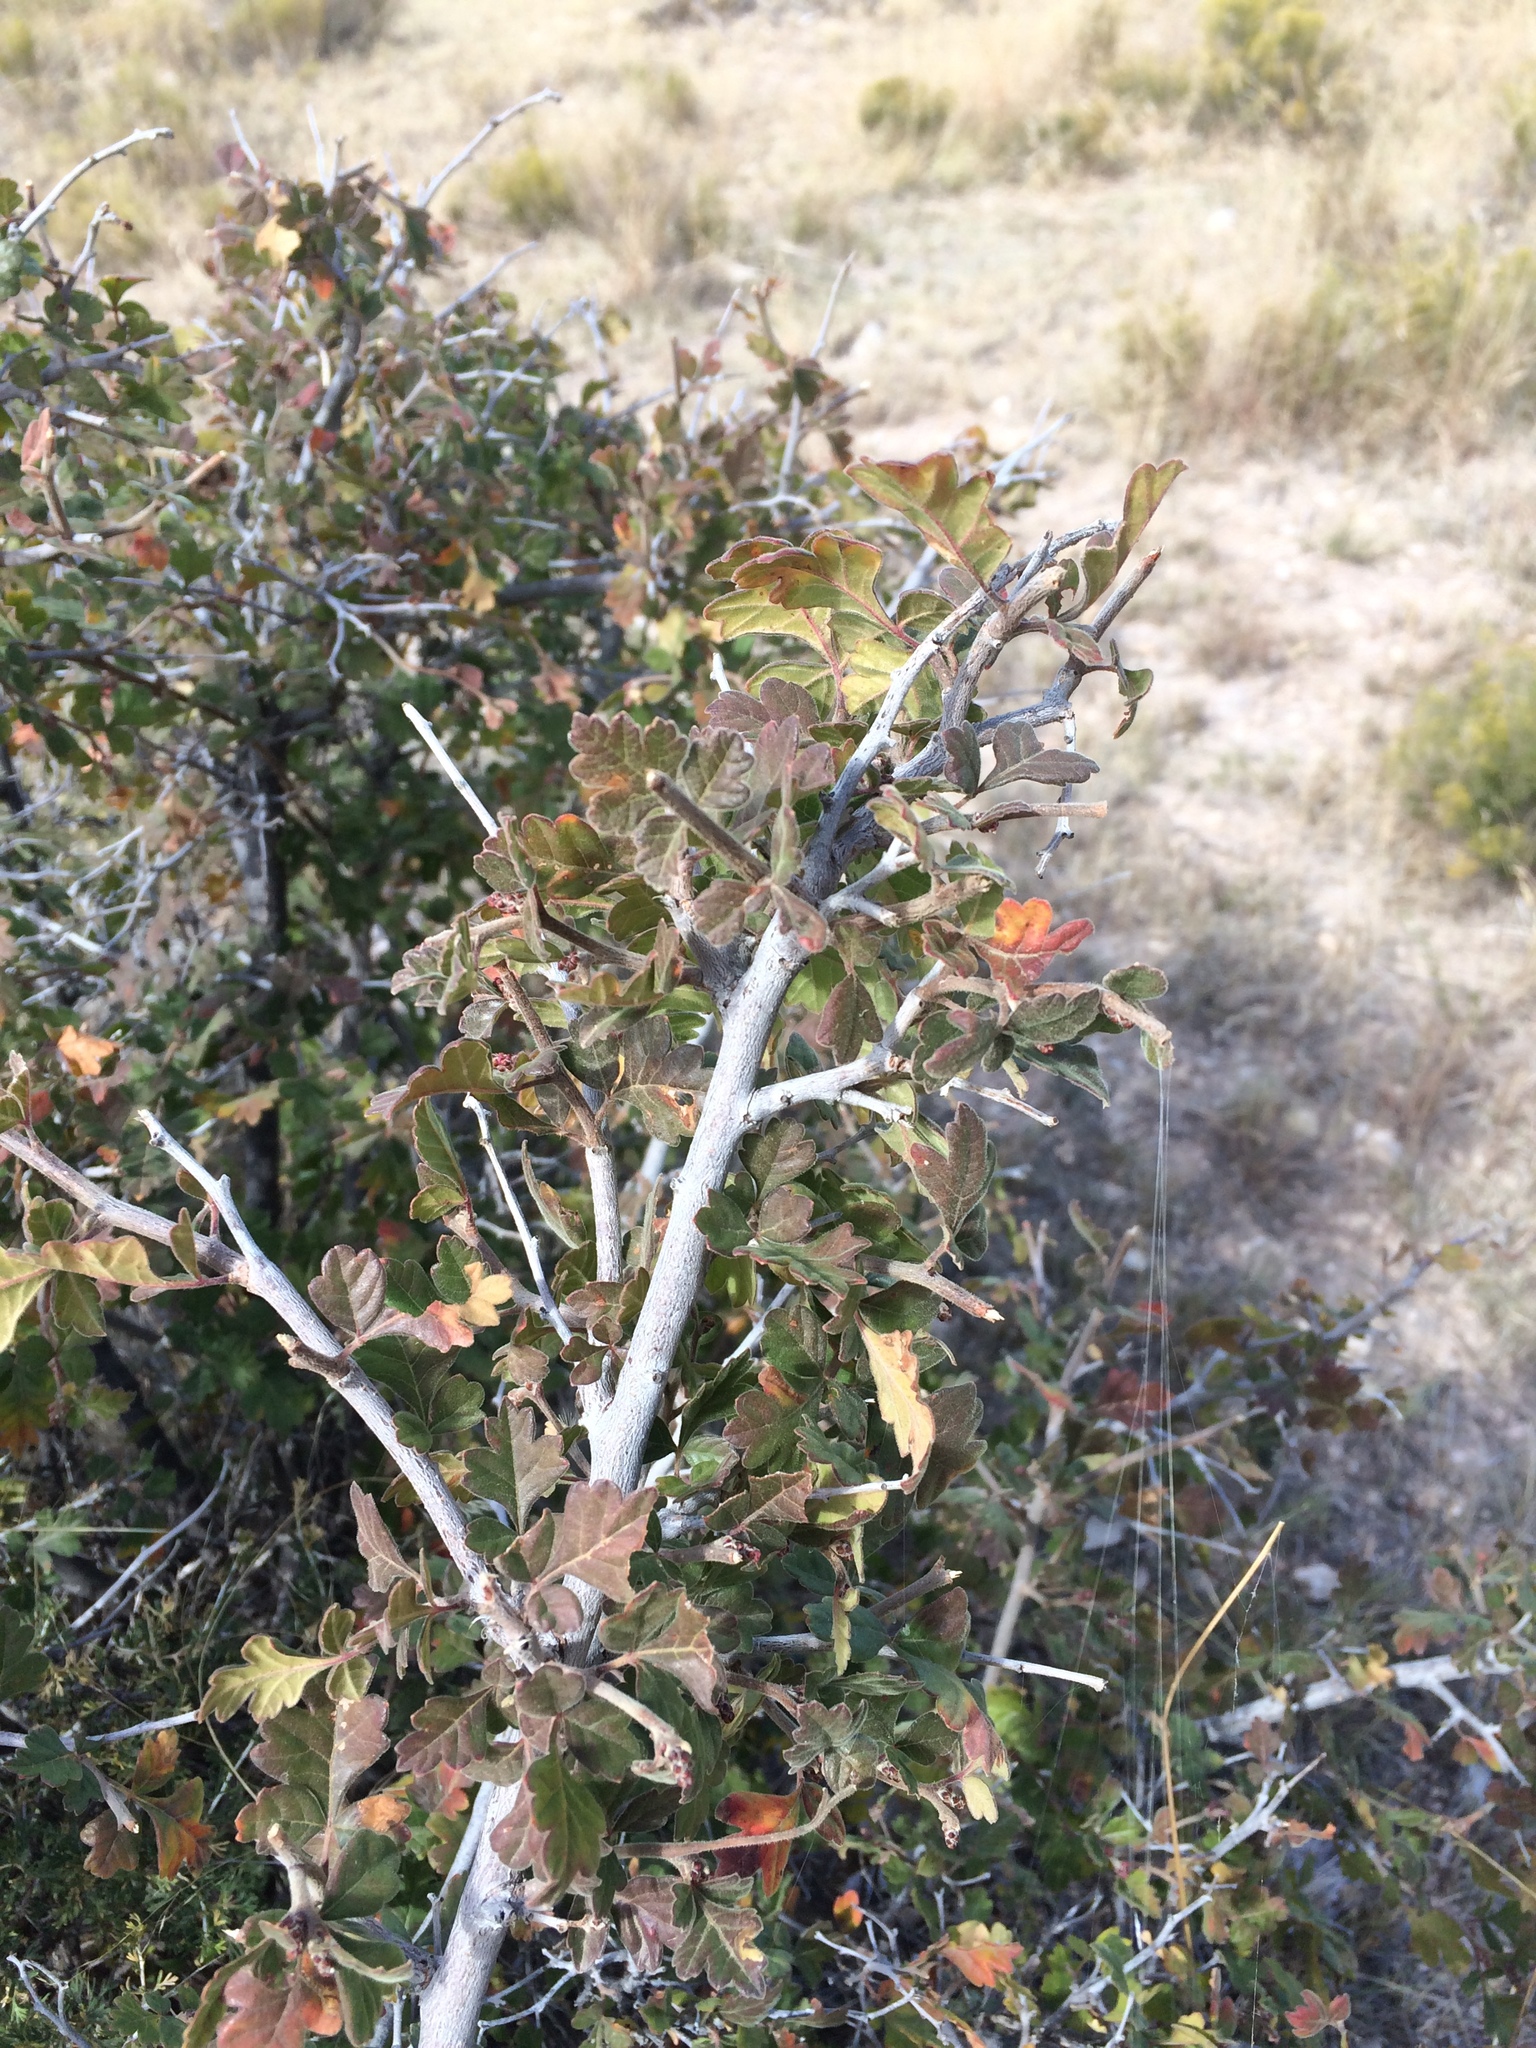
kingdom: Plantae
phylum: Tracheophyta
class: Magnoliopsida
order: Sapindales
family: Anacardiaceae
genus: Rhus
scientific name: Rhus aromatica
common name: Aromatic sumac
